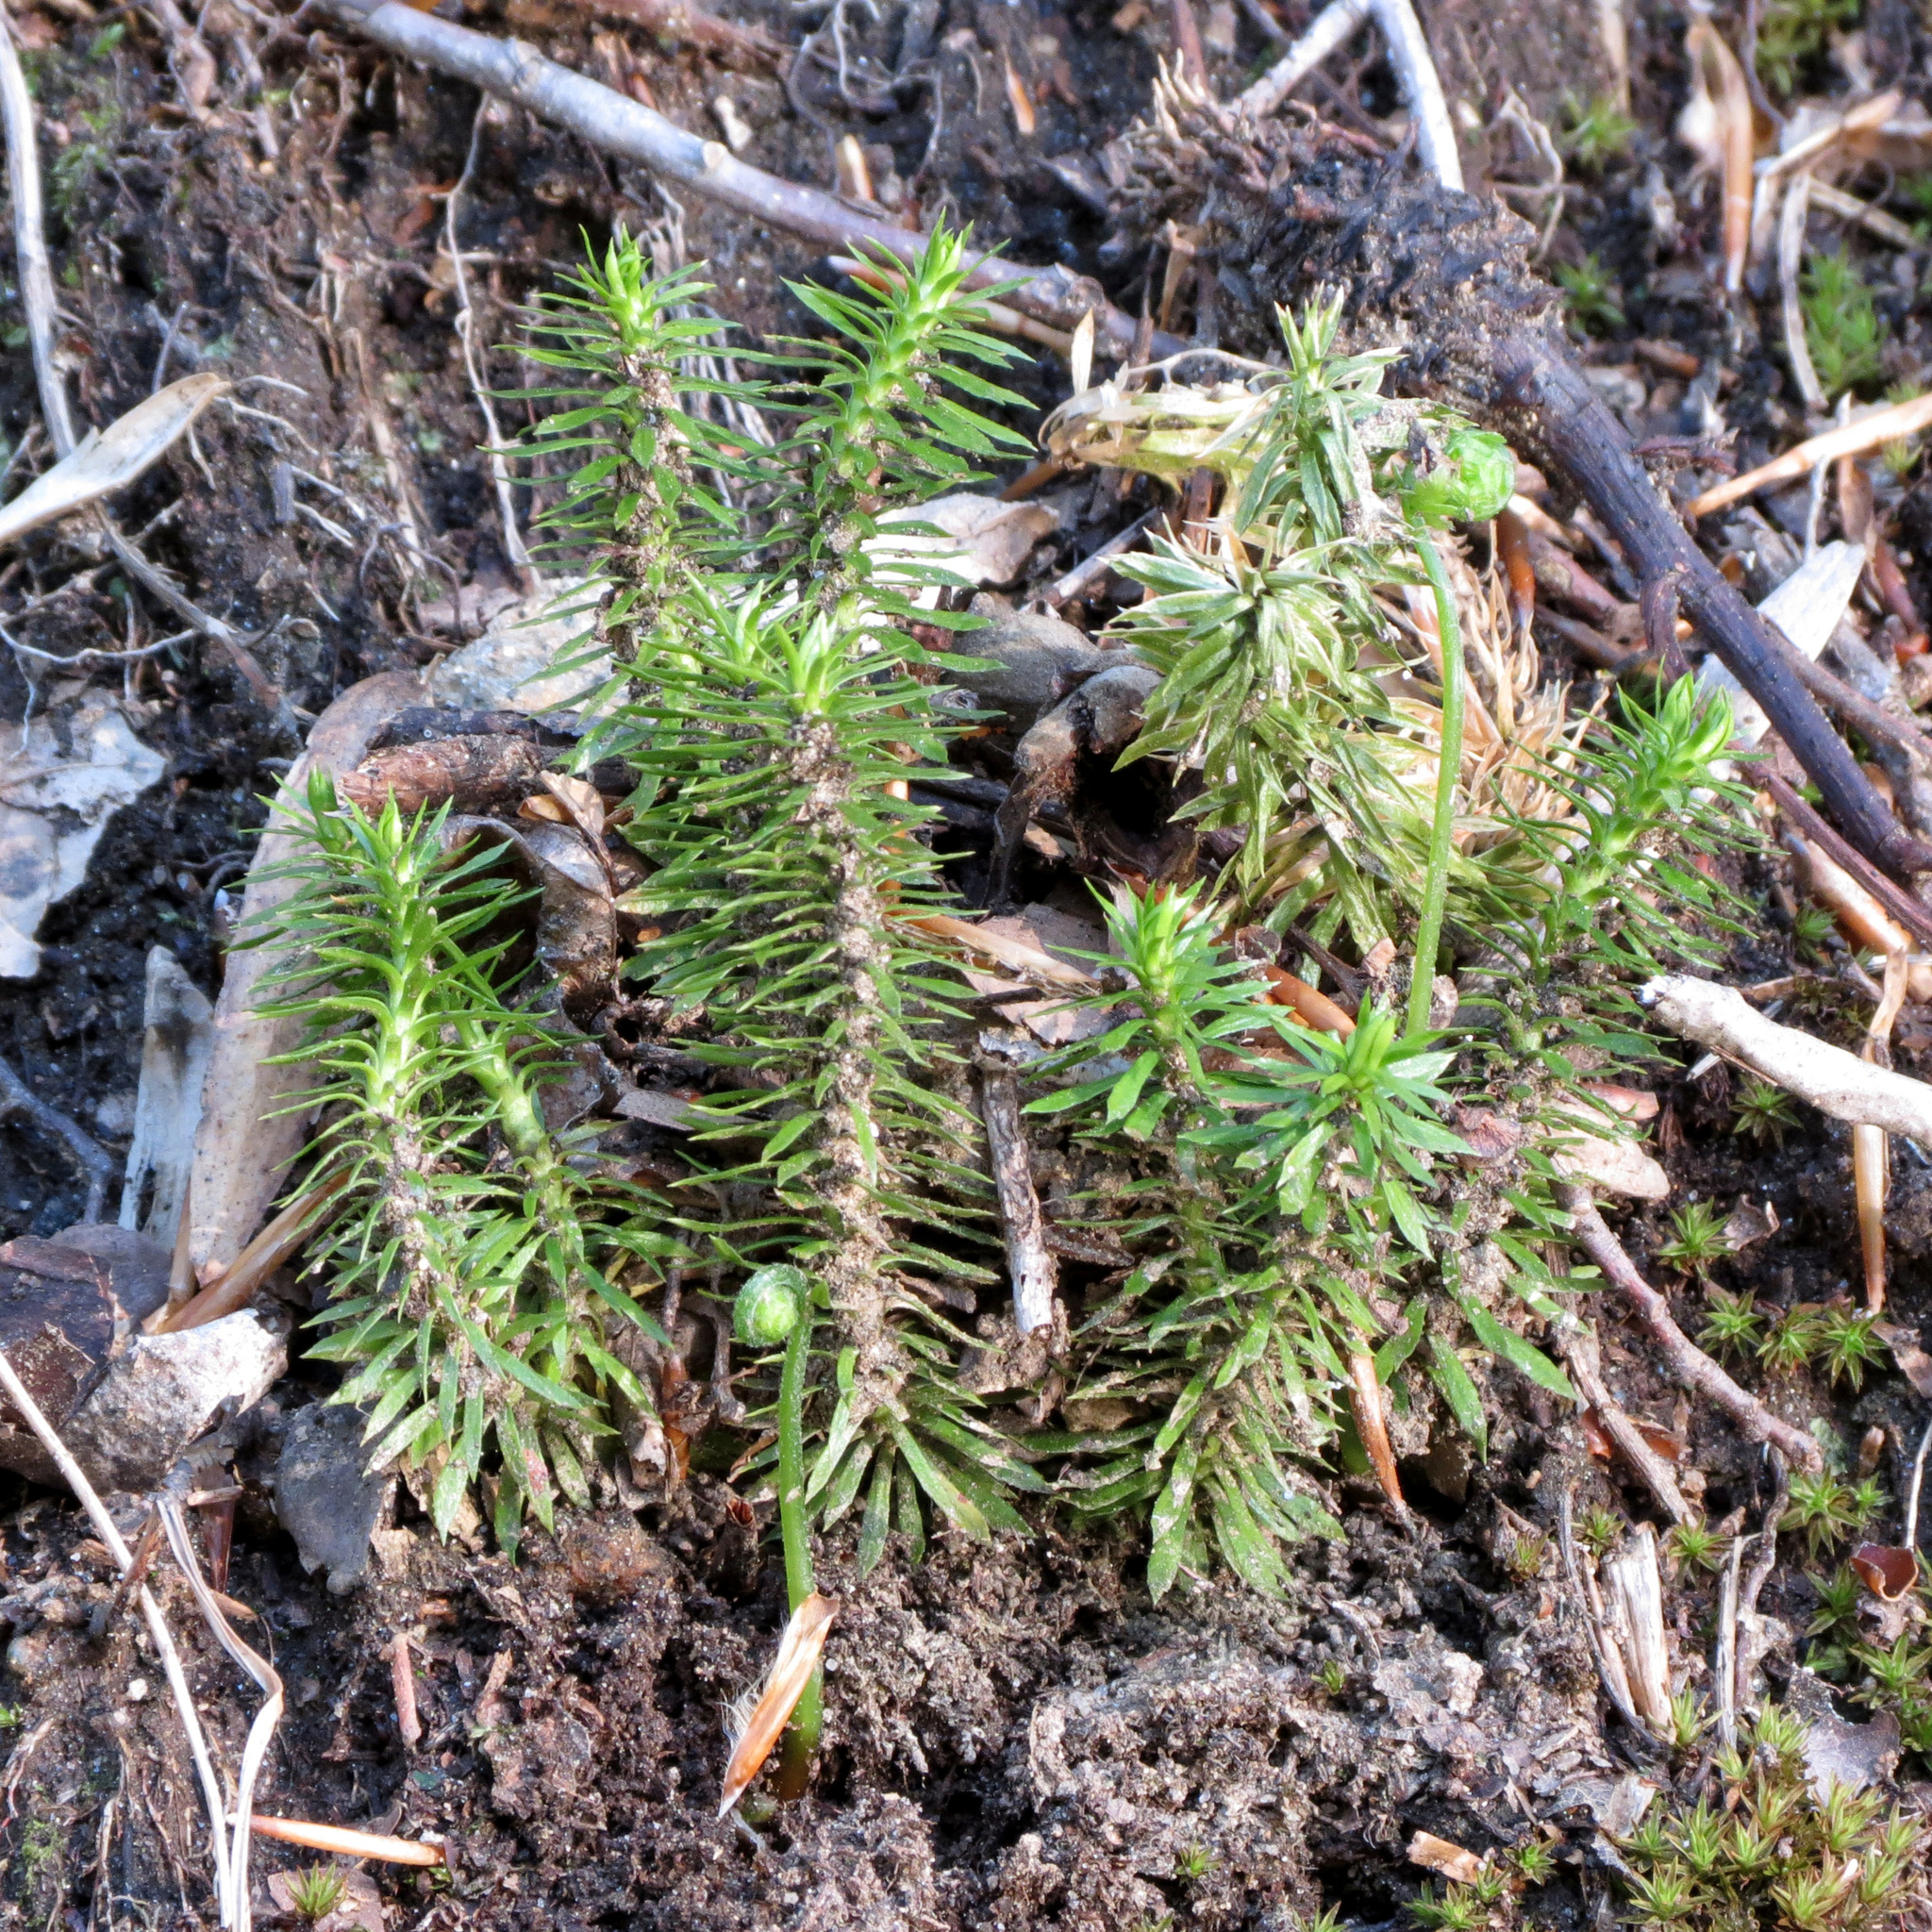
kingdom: Plantae
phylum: Tracheophyta
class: Lycopodiopsida
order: Lycopodiales
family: Lycopodiaceae
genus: Huperzia
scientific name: Huperzia lucidula
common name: Shining clubmoss
